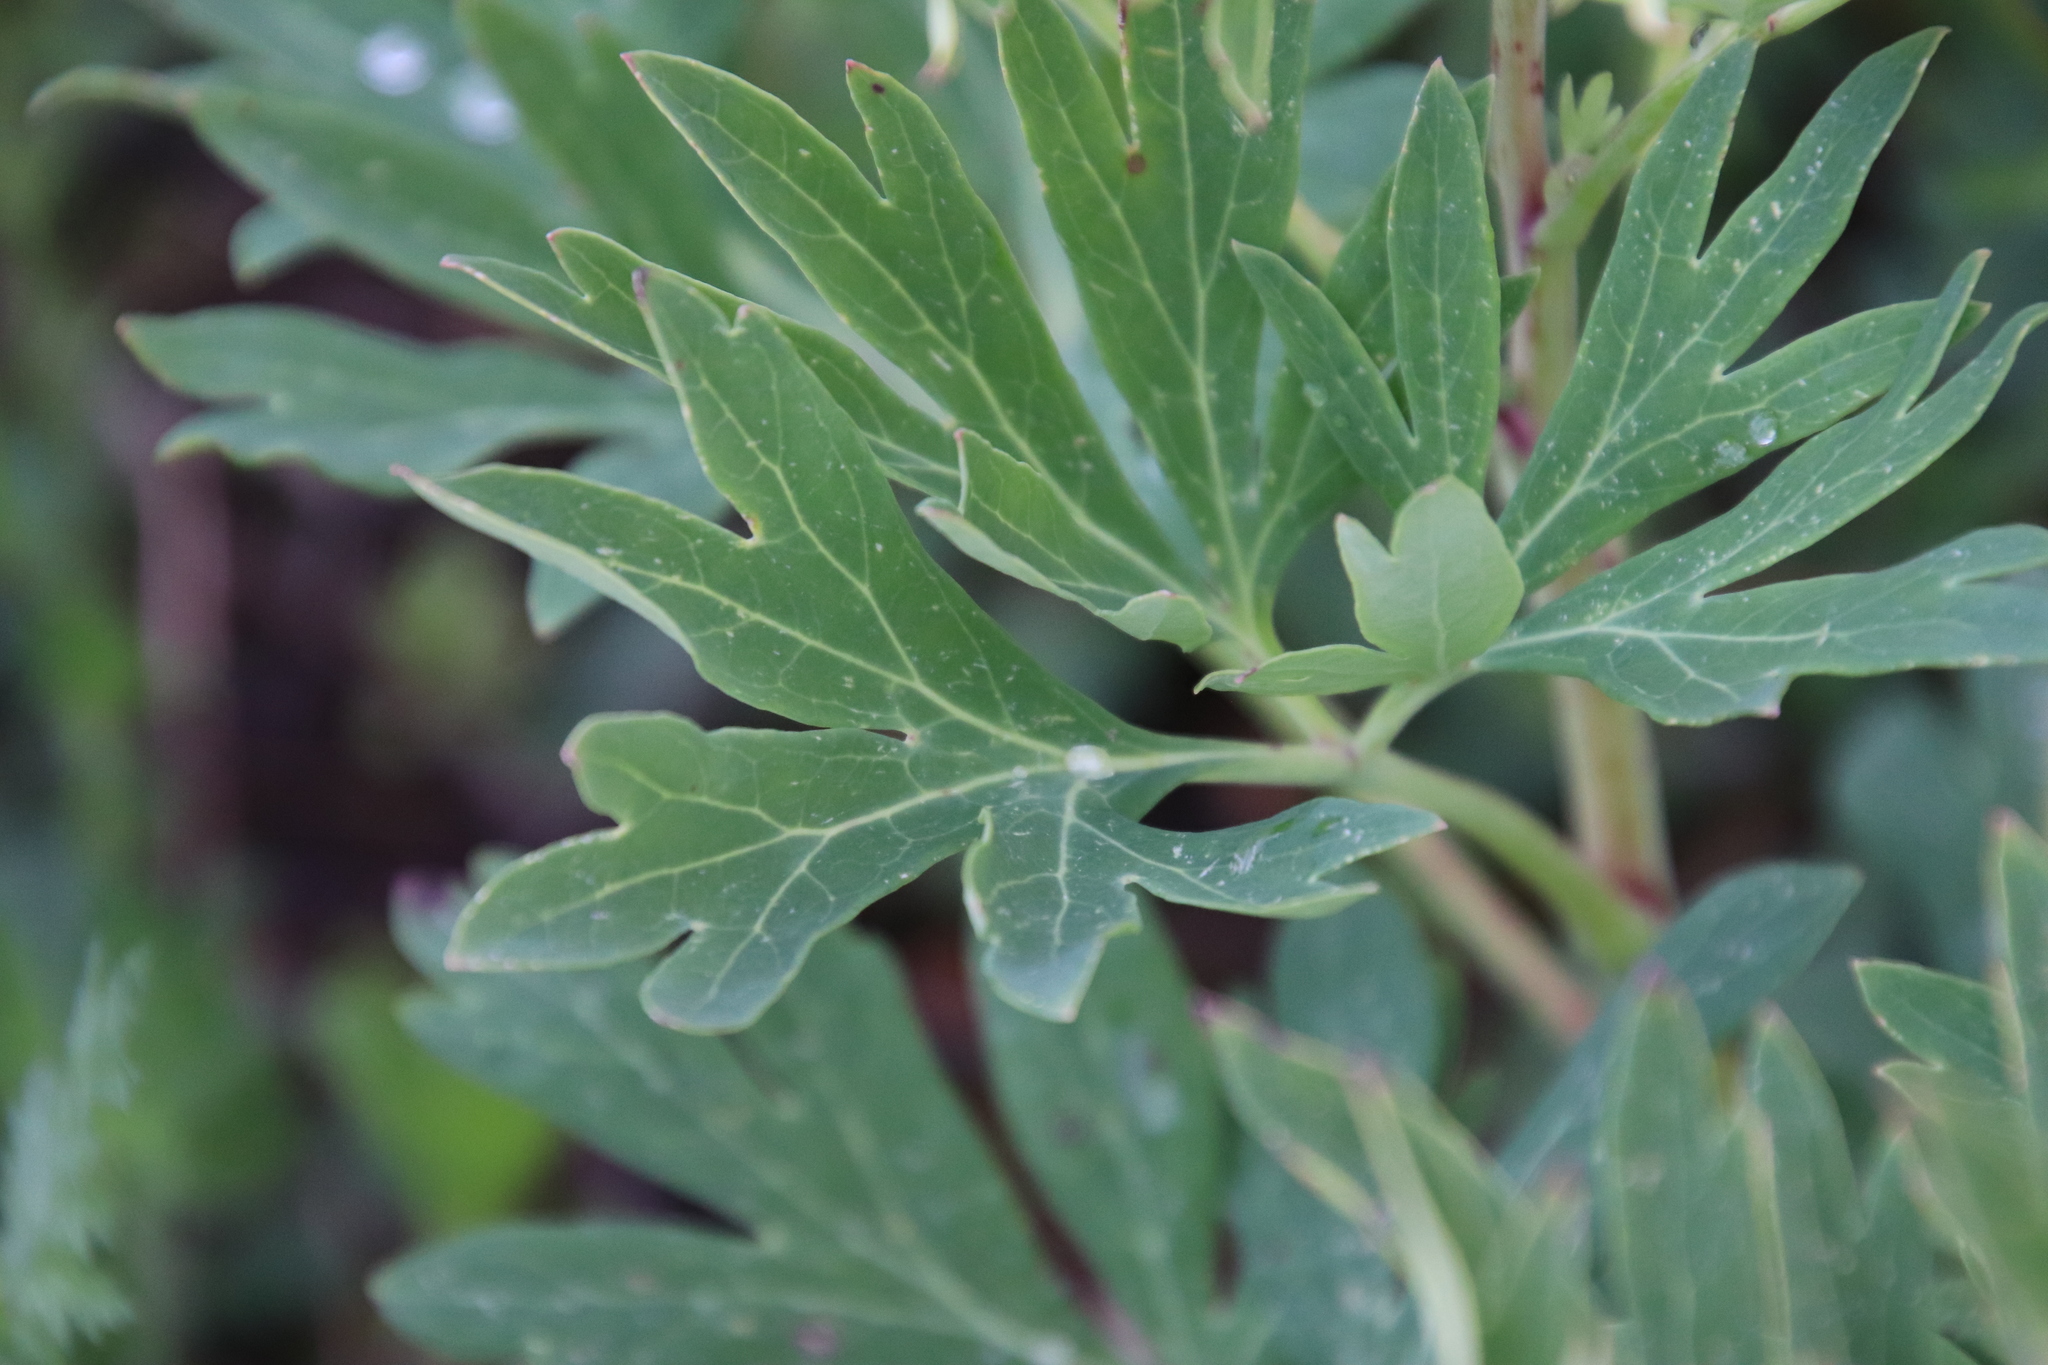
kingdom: Plantae
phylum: Tracheophyta
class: Magnoliopsida
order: Saxifragales
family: Paeoniaceae
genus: Paeonia
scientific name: Paeonia californica
